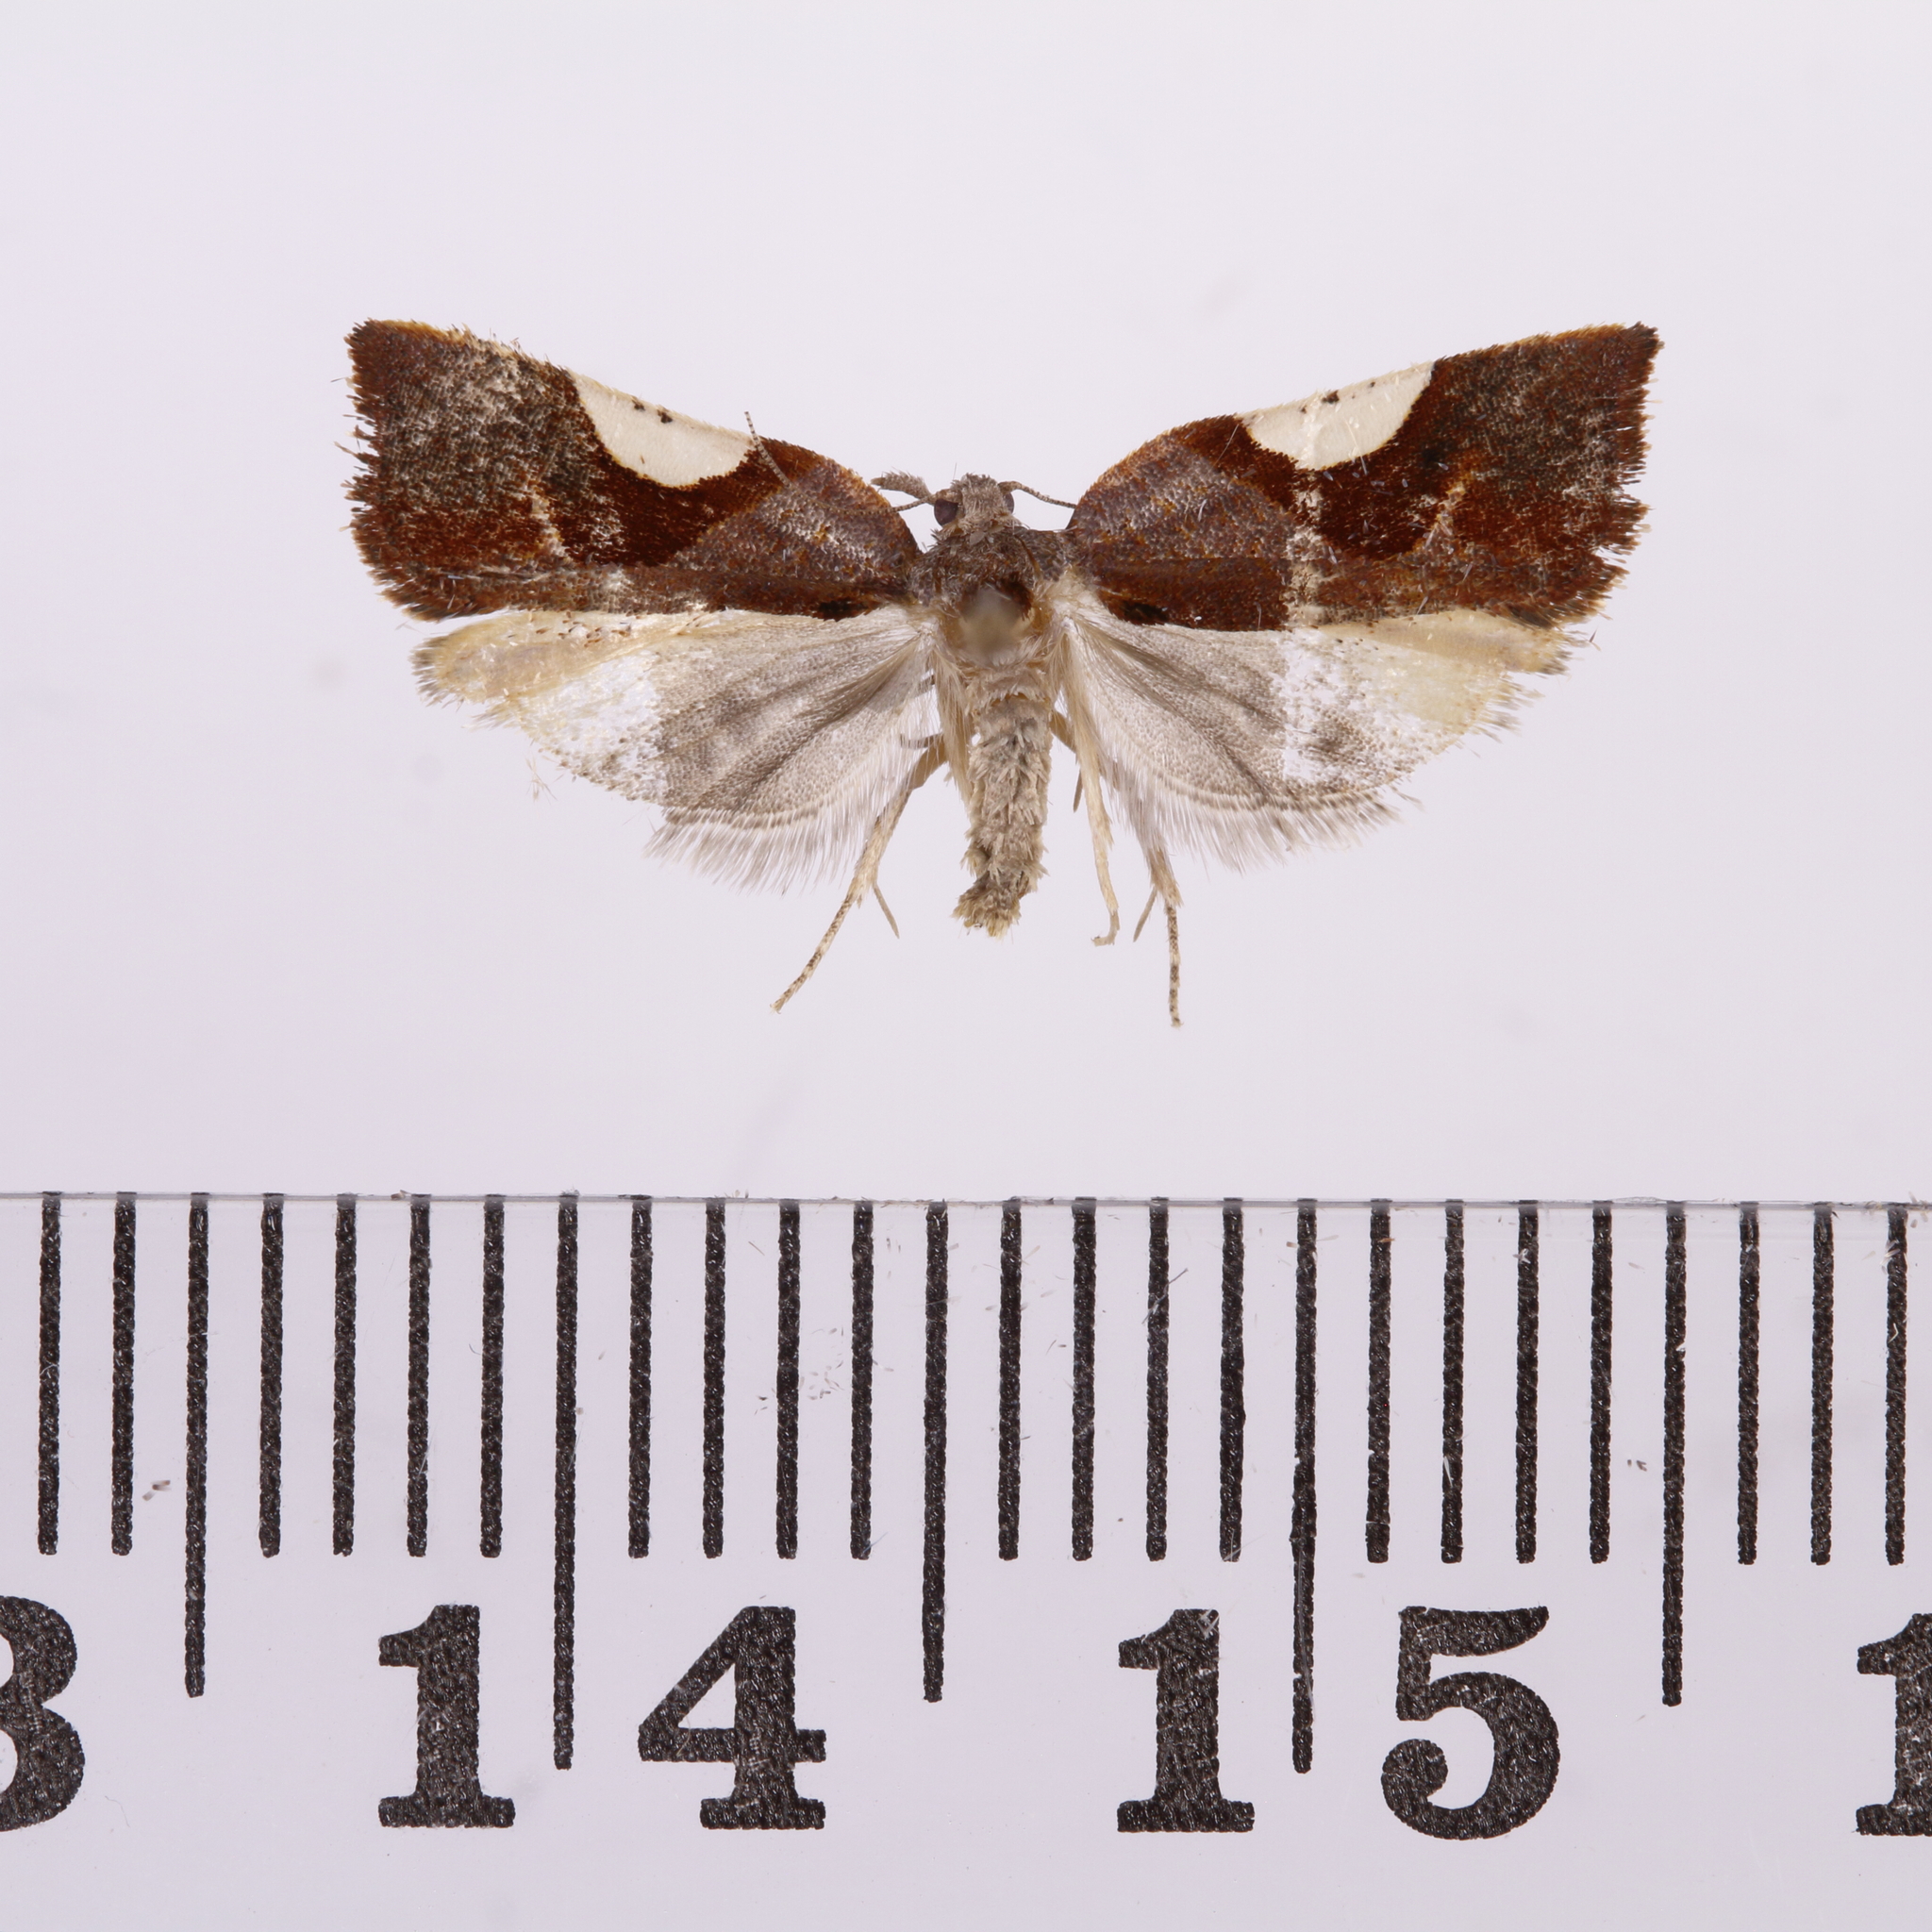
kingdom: Animalia
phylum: Arthropoda
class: Insecta
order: Lepidoptera
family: Tortricidae
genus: Pyrgotis
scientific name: Pyrgotis plagiatana
